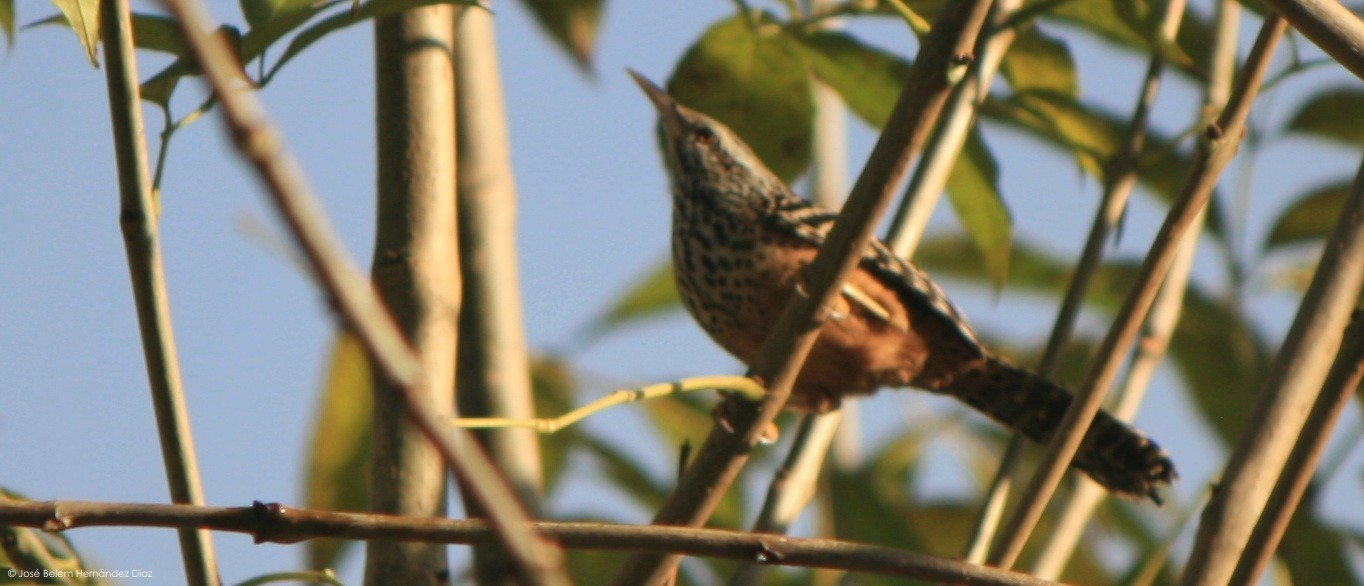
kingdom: Animalia
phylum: Chordata
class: Aves
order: Passeriformes
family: Troglodytidae
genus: Campylorhynchus
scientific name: Campylorhynchus zonatus
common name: Band-backed wren
